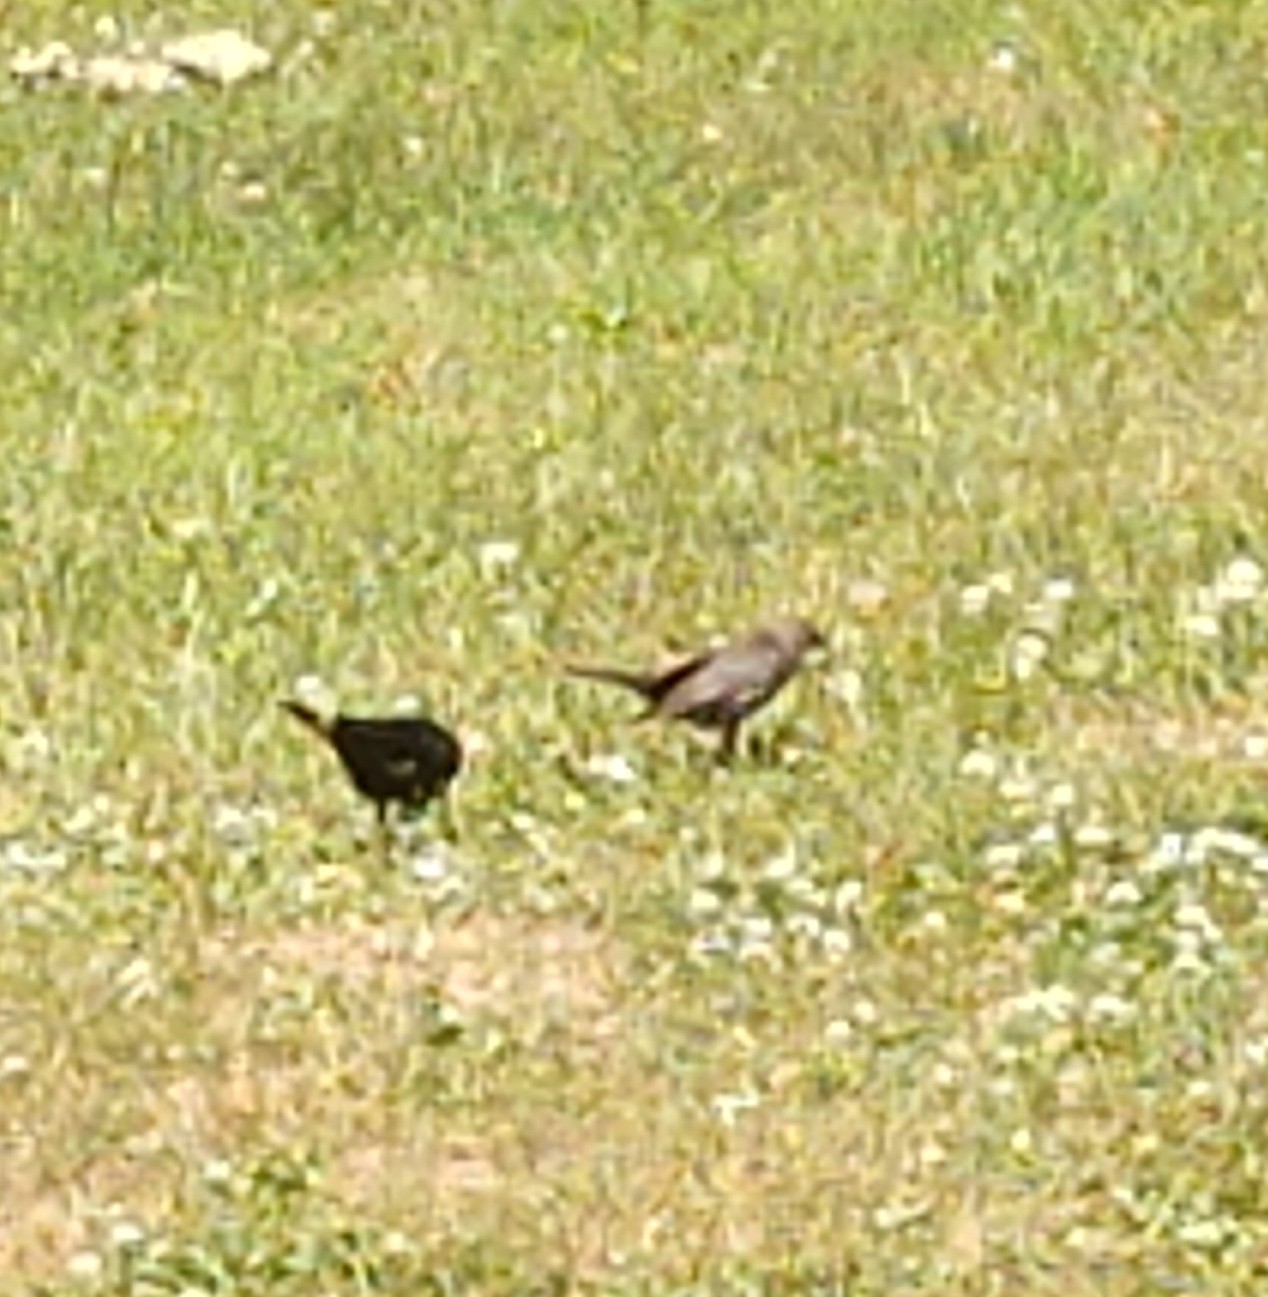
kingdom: Animalia
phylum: Chordata
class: Aves
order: Passeriformes
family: Icteridae
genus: Molothrus
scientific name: Molothrus ater
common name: Brown-headed cowbird
